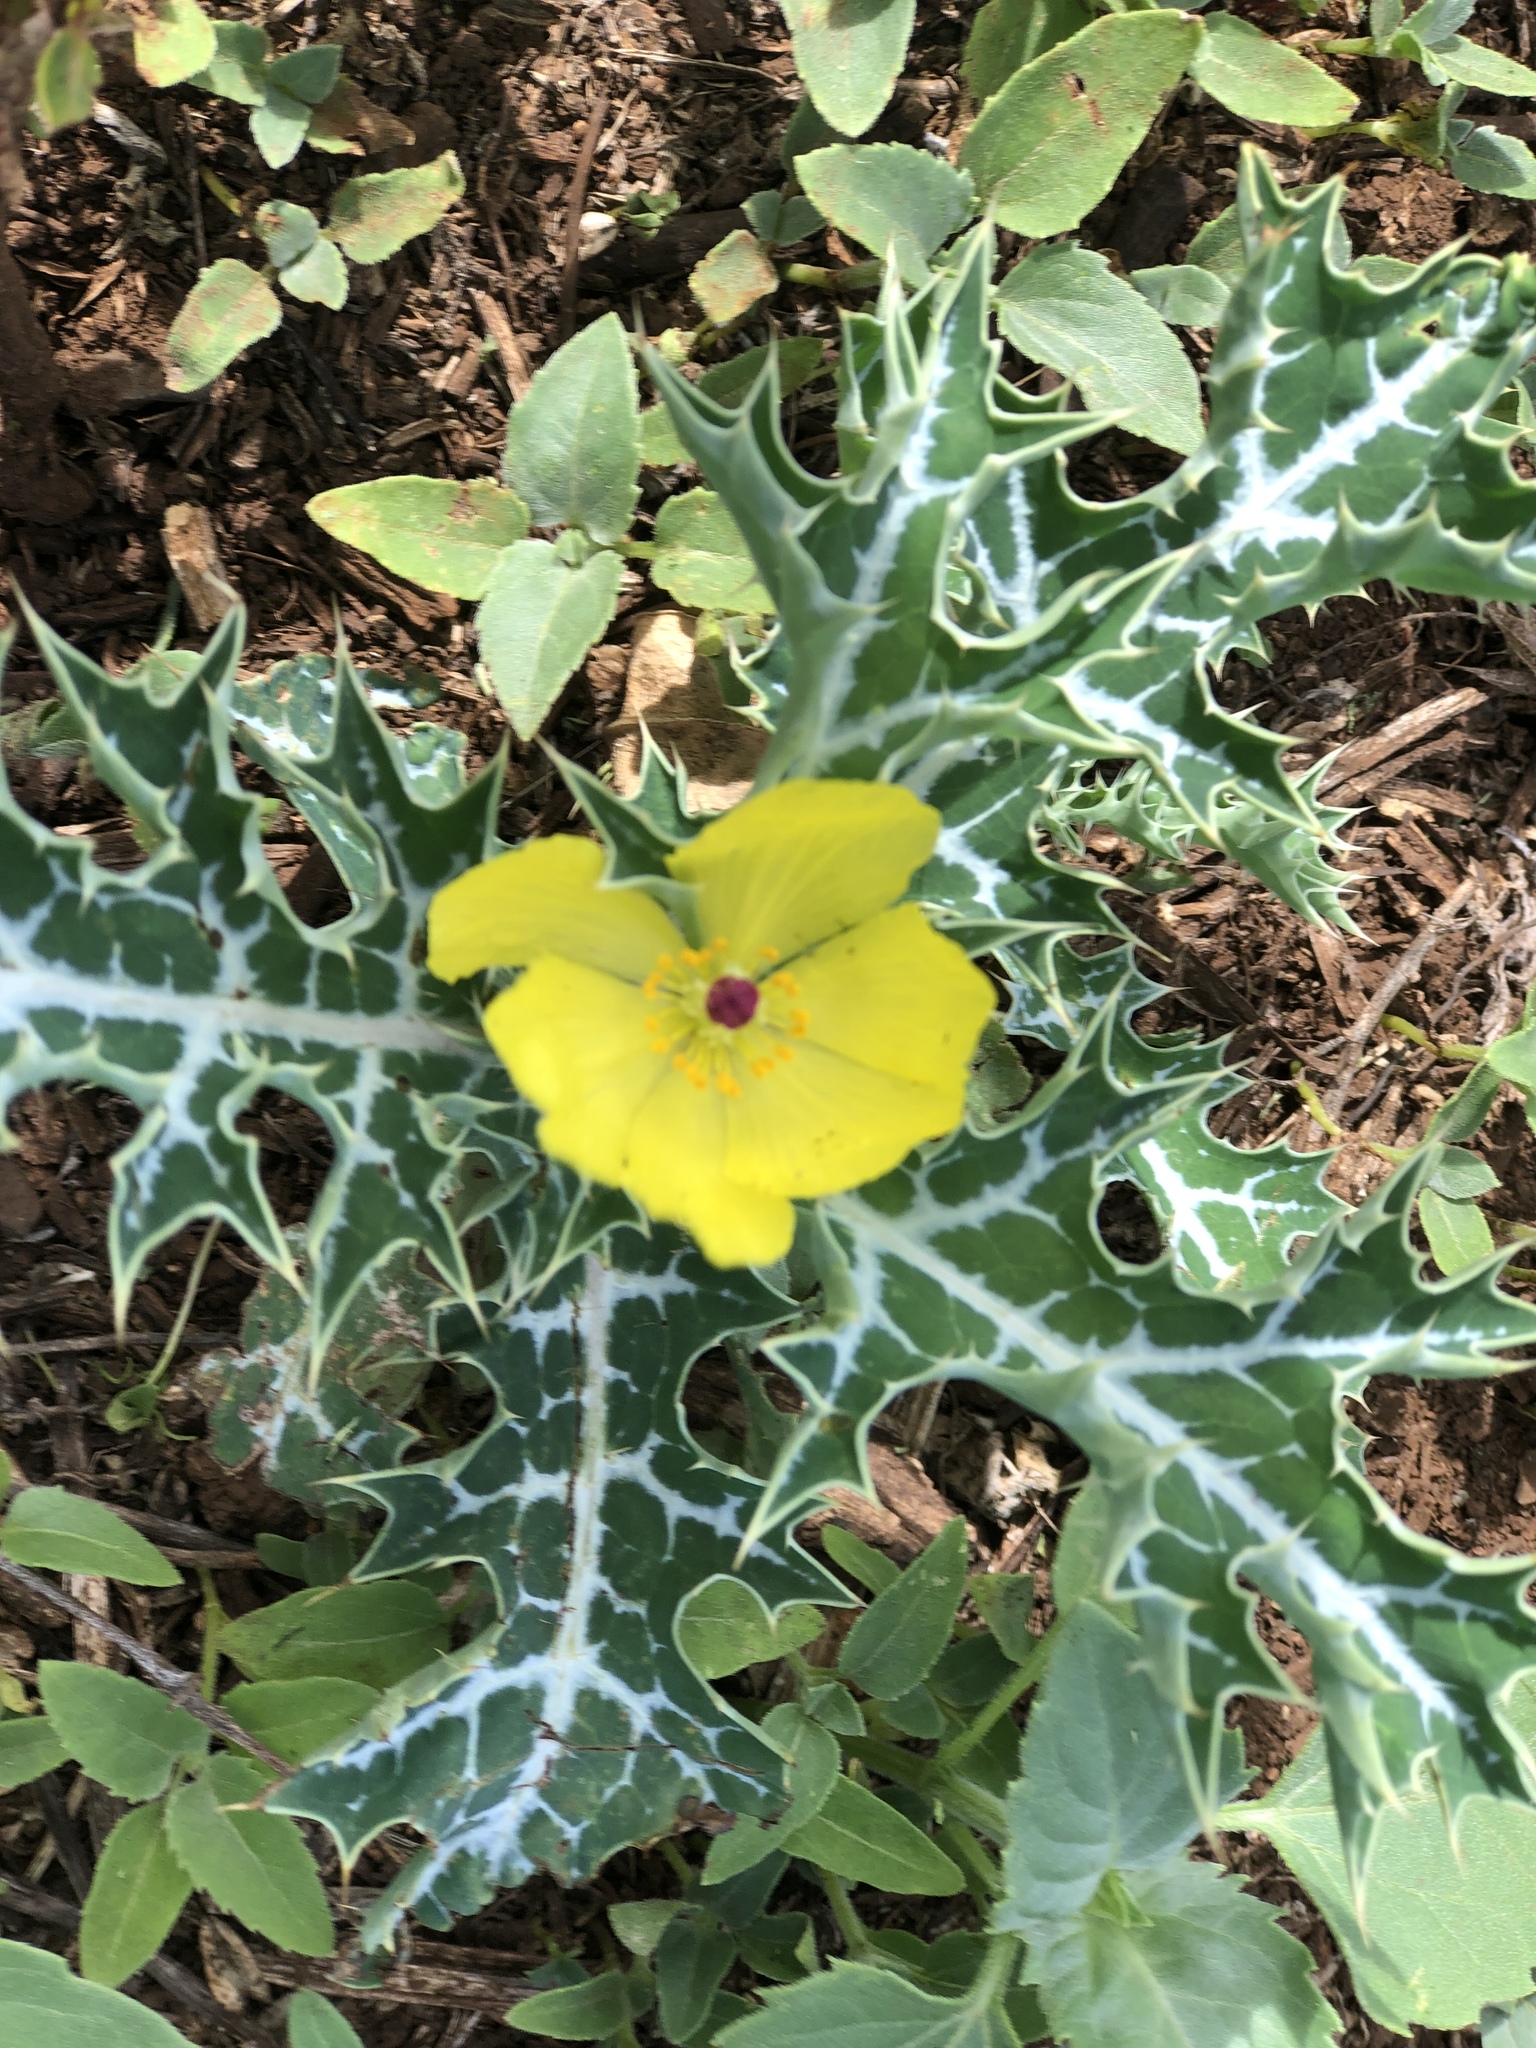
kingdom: Plantae
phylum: Tracheophyta
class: Magnoliopsida
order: Ranunculales
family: Papaveraceae
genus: Argemone
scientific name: Argemone mexicana
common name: Mexican poppy
